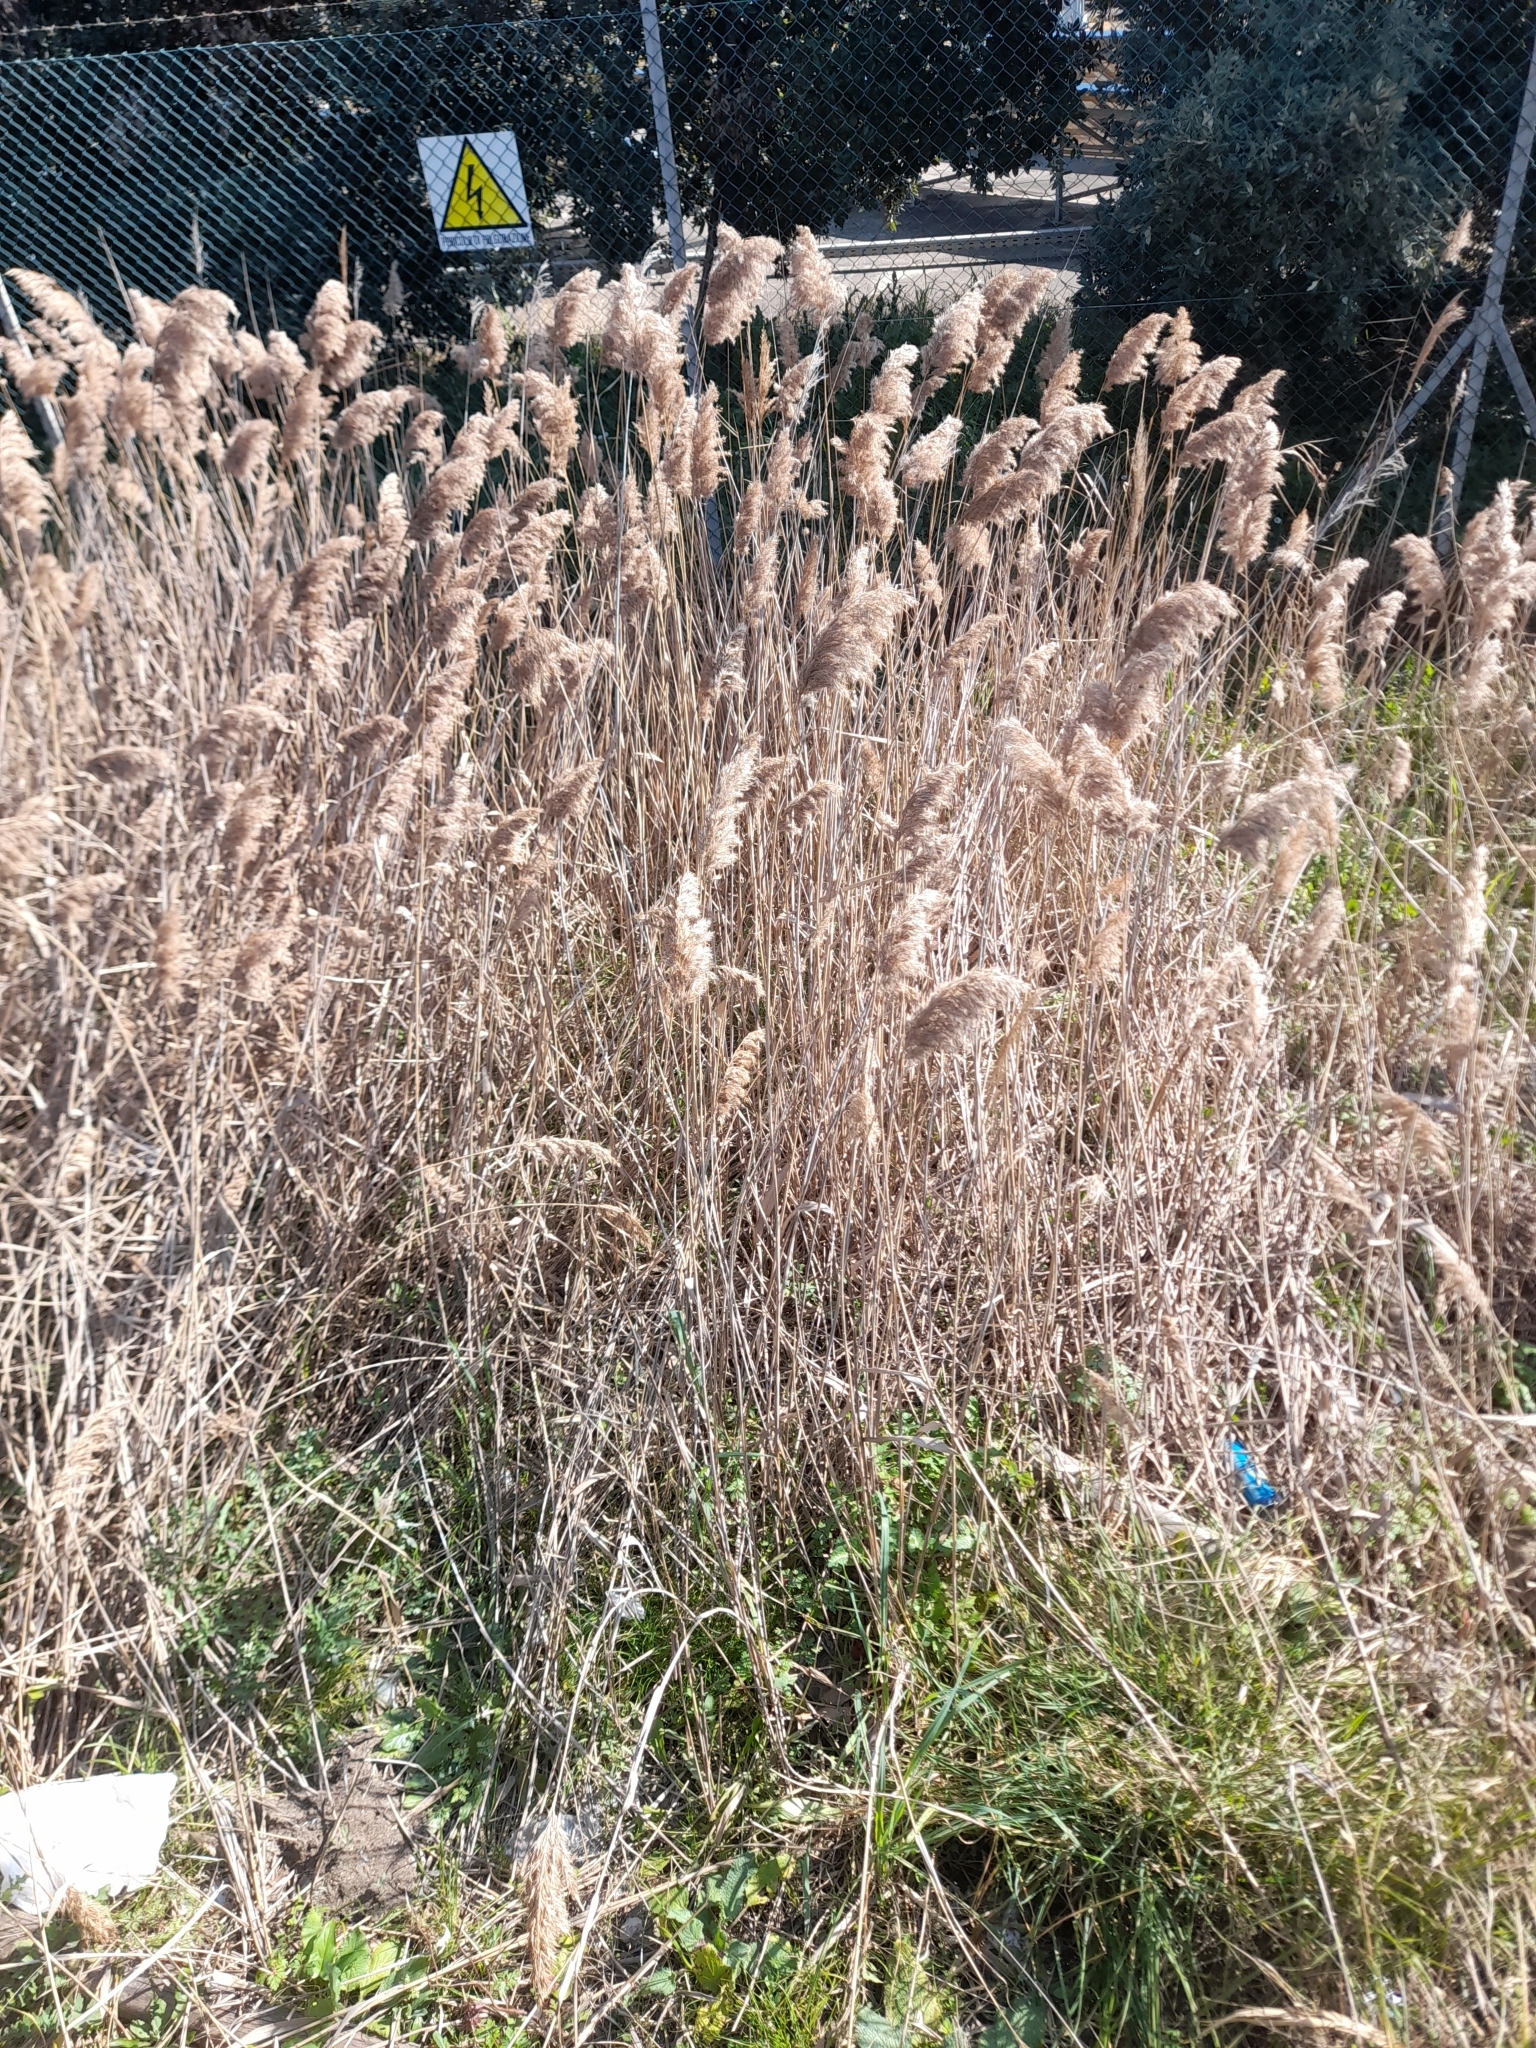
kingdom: Plantae
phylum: Tracheophyta
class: Liliopsida
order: Poales
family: Poaceae
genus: Phragmites
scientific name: Phragmites australis
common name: Common reed
